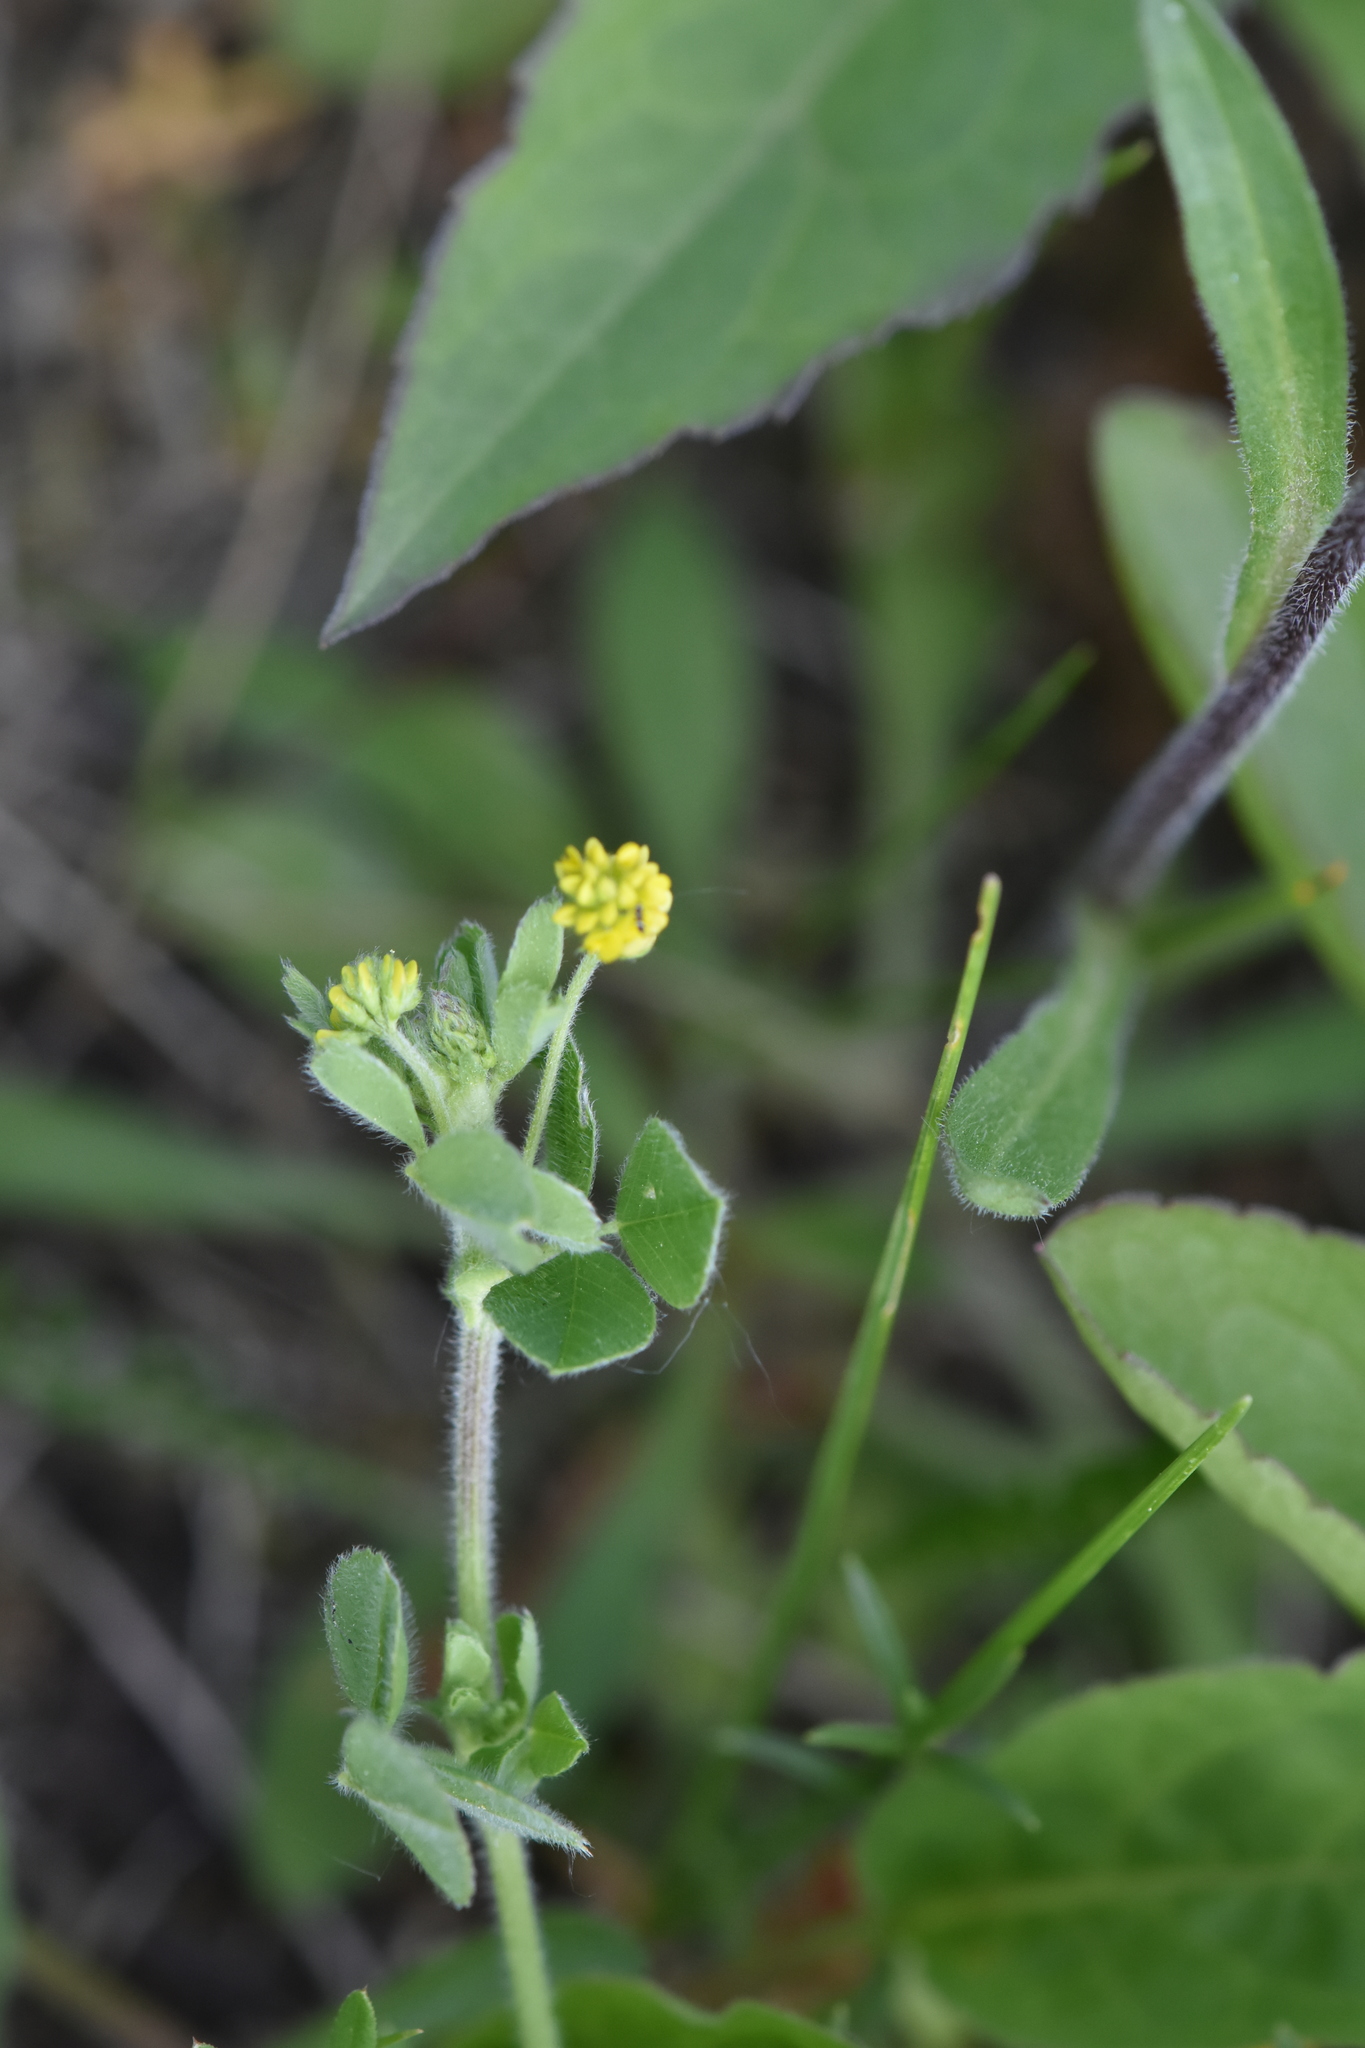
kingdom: Plantae
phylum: Tracheophyta
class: Magnoliopsida
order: Fabales
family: Fabaceae
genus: Medicago
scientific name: Medicago lupulina
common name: Black medick
